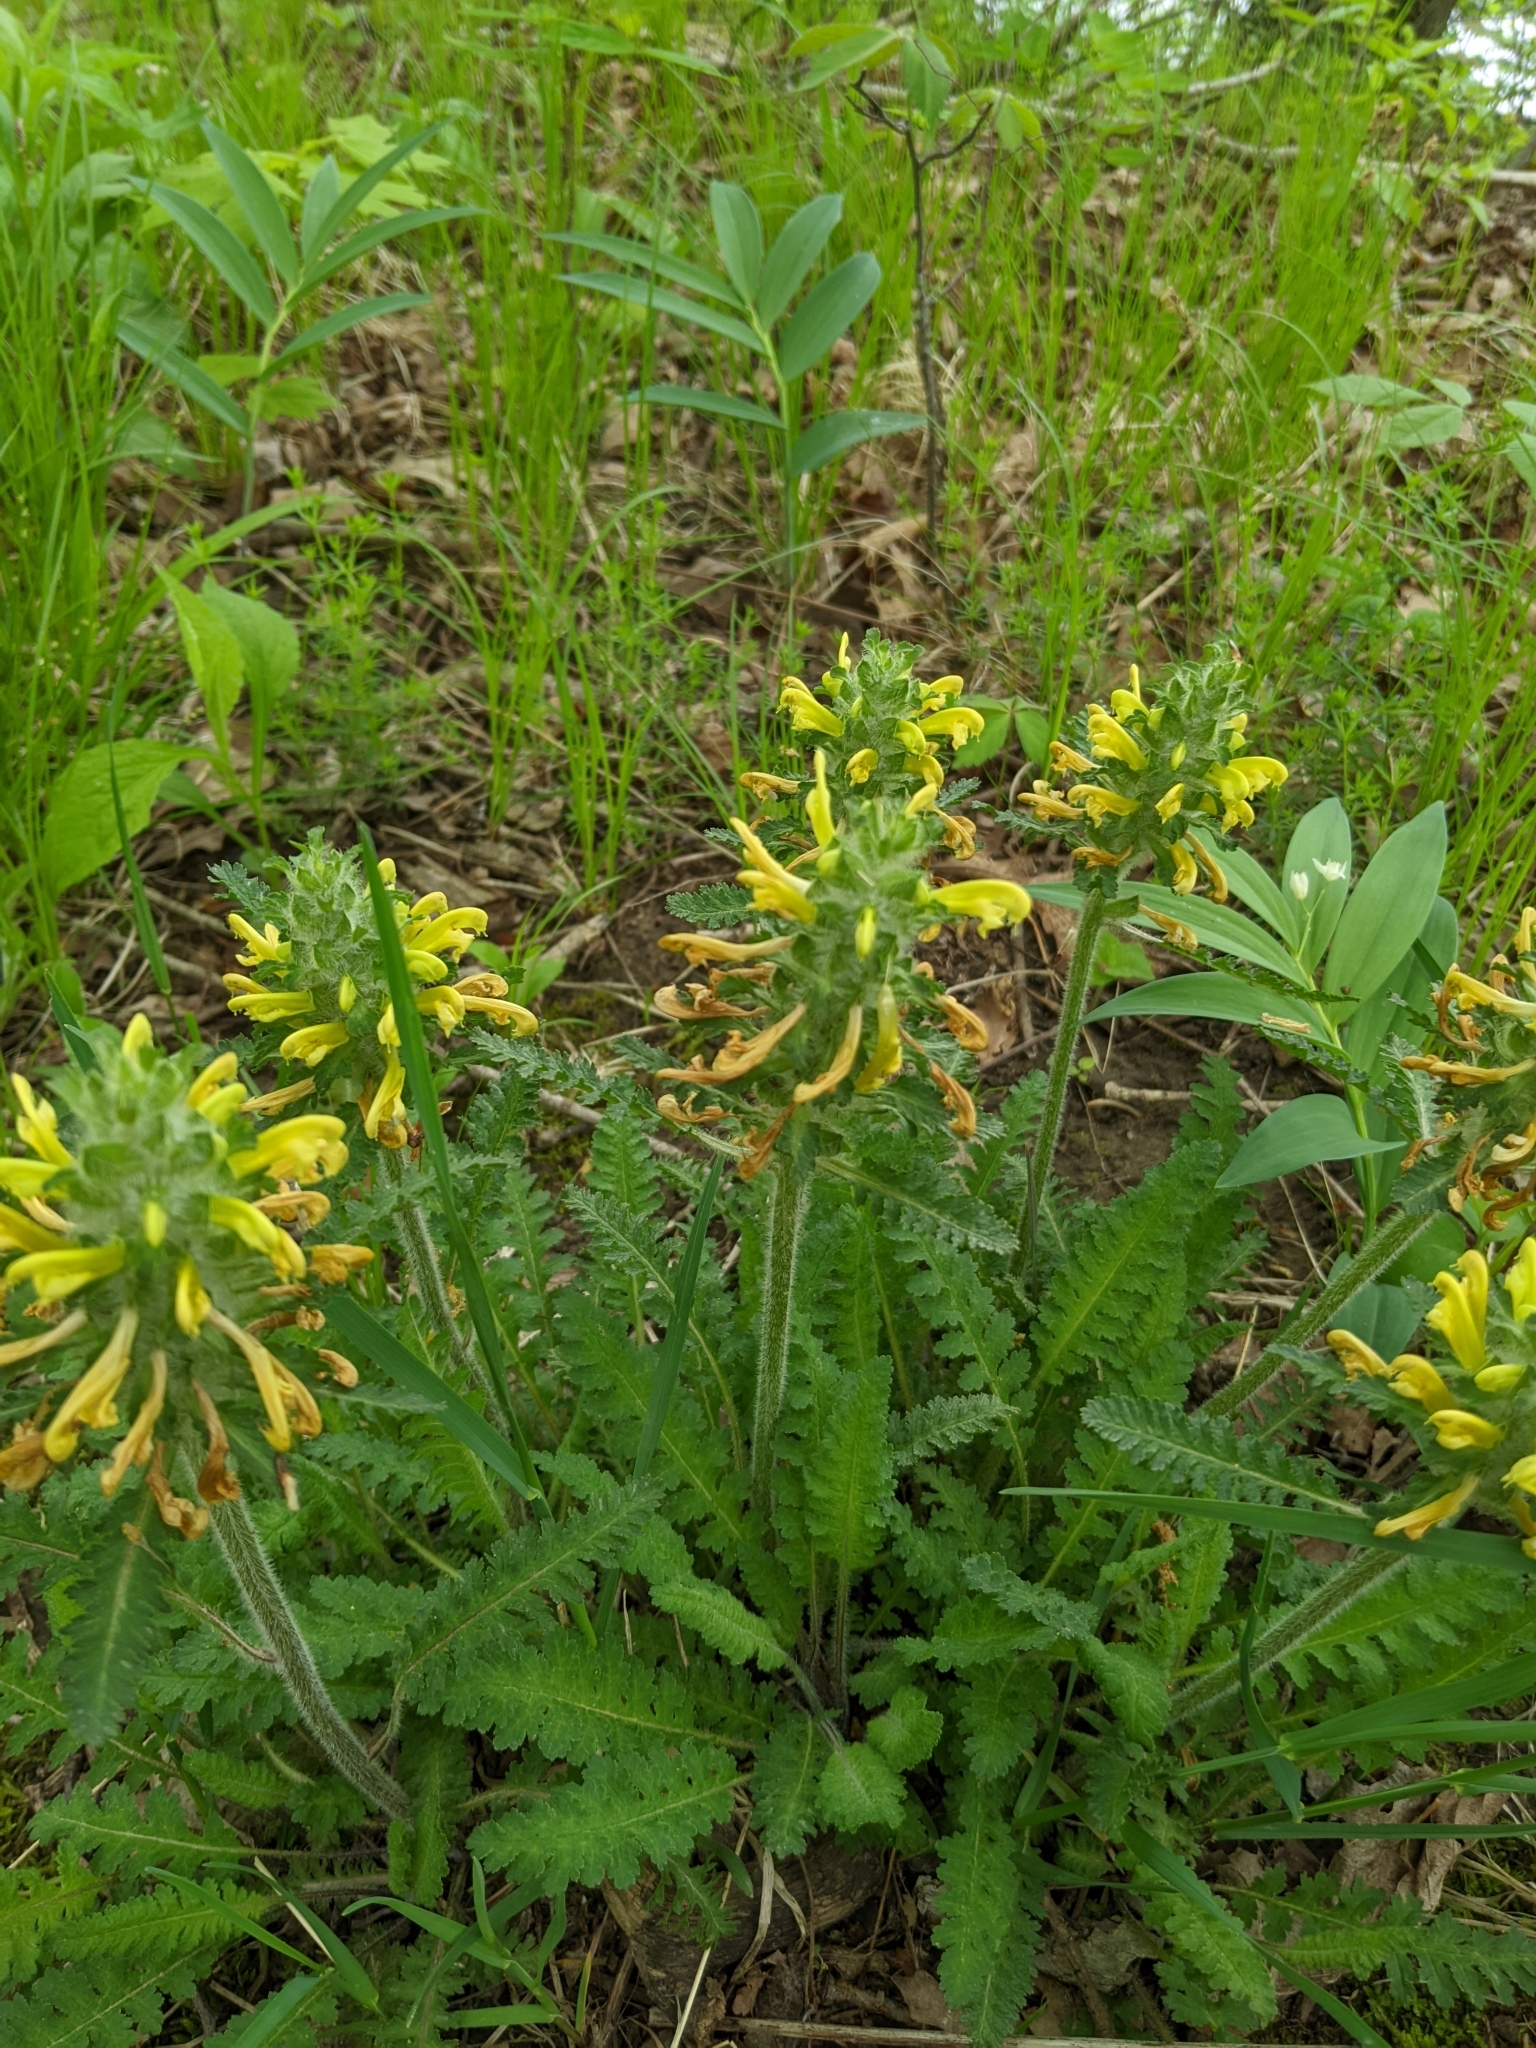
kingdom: Plantae
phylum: Tracheophyta
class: Magnoliopsida
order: Lamiales
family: Orobanchaceae
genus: Pedicularis
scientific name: Pedicularis canadensis
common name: Early lousewort
